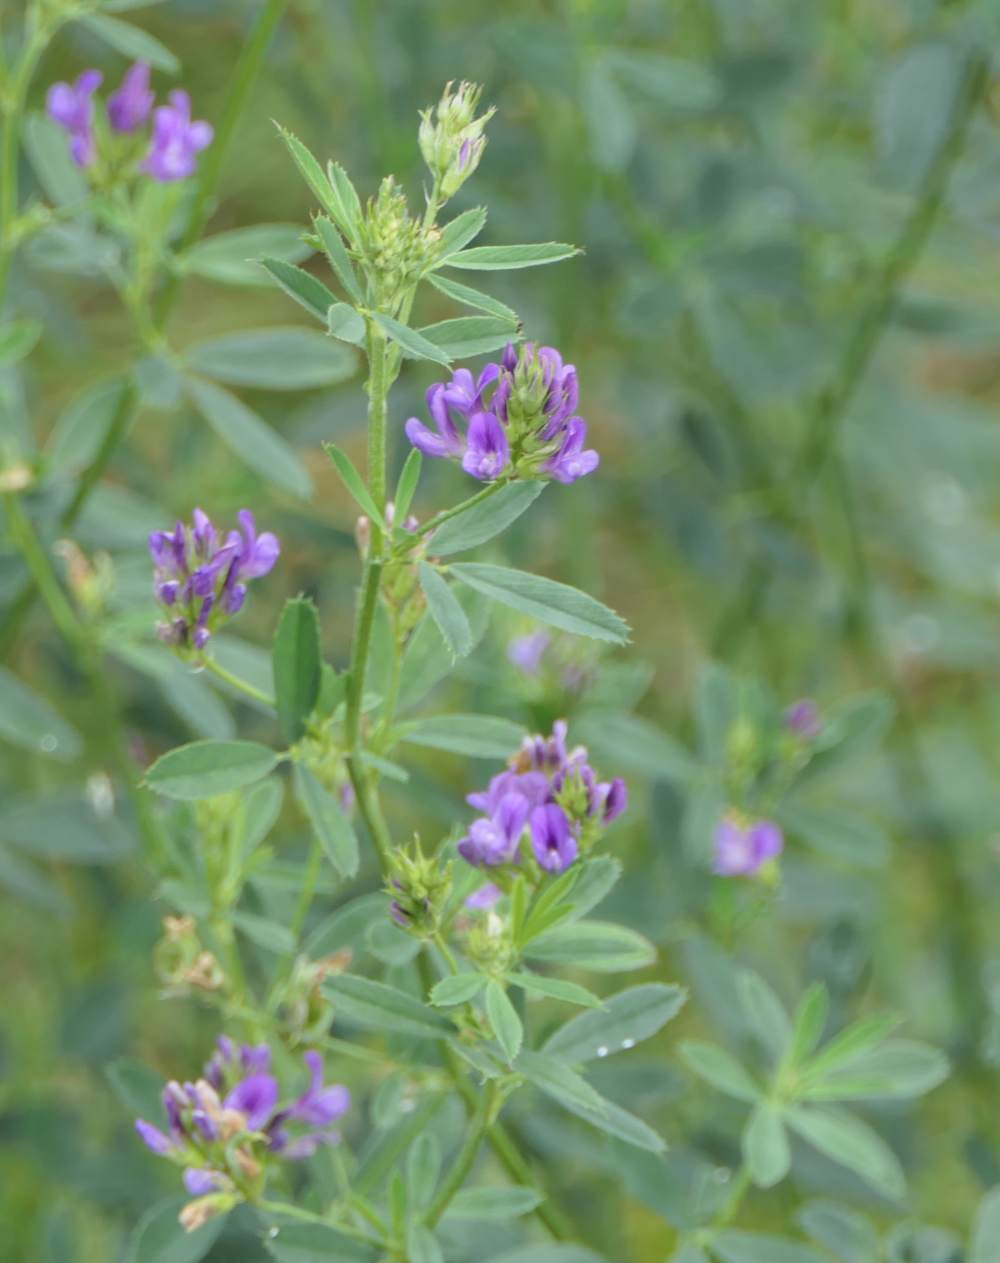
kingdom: Plantae
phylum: Tracheophyta
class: Magnoliopsida
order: Fabales
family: Fabaceae
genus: Medicago
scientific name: Medicago sativa
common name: Alfalfa
